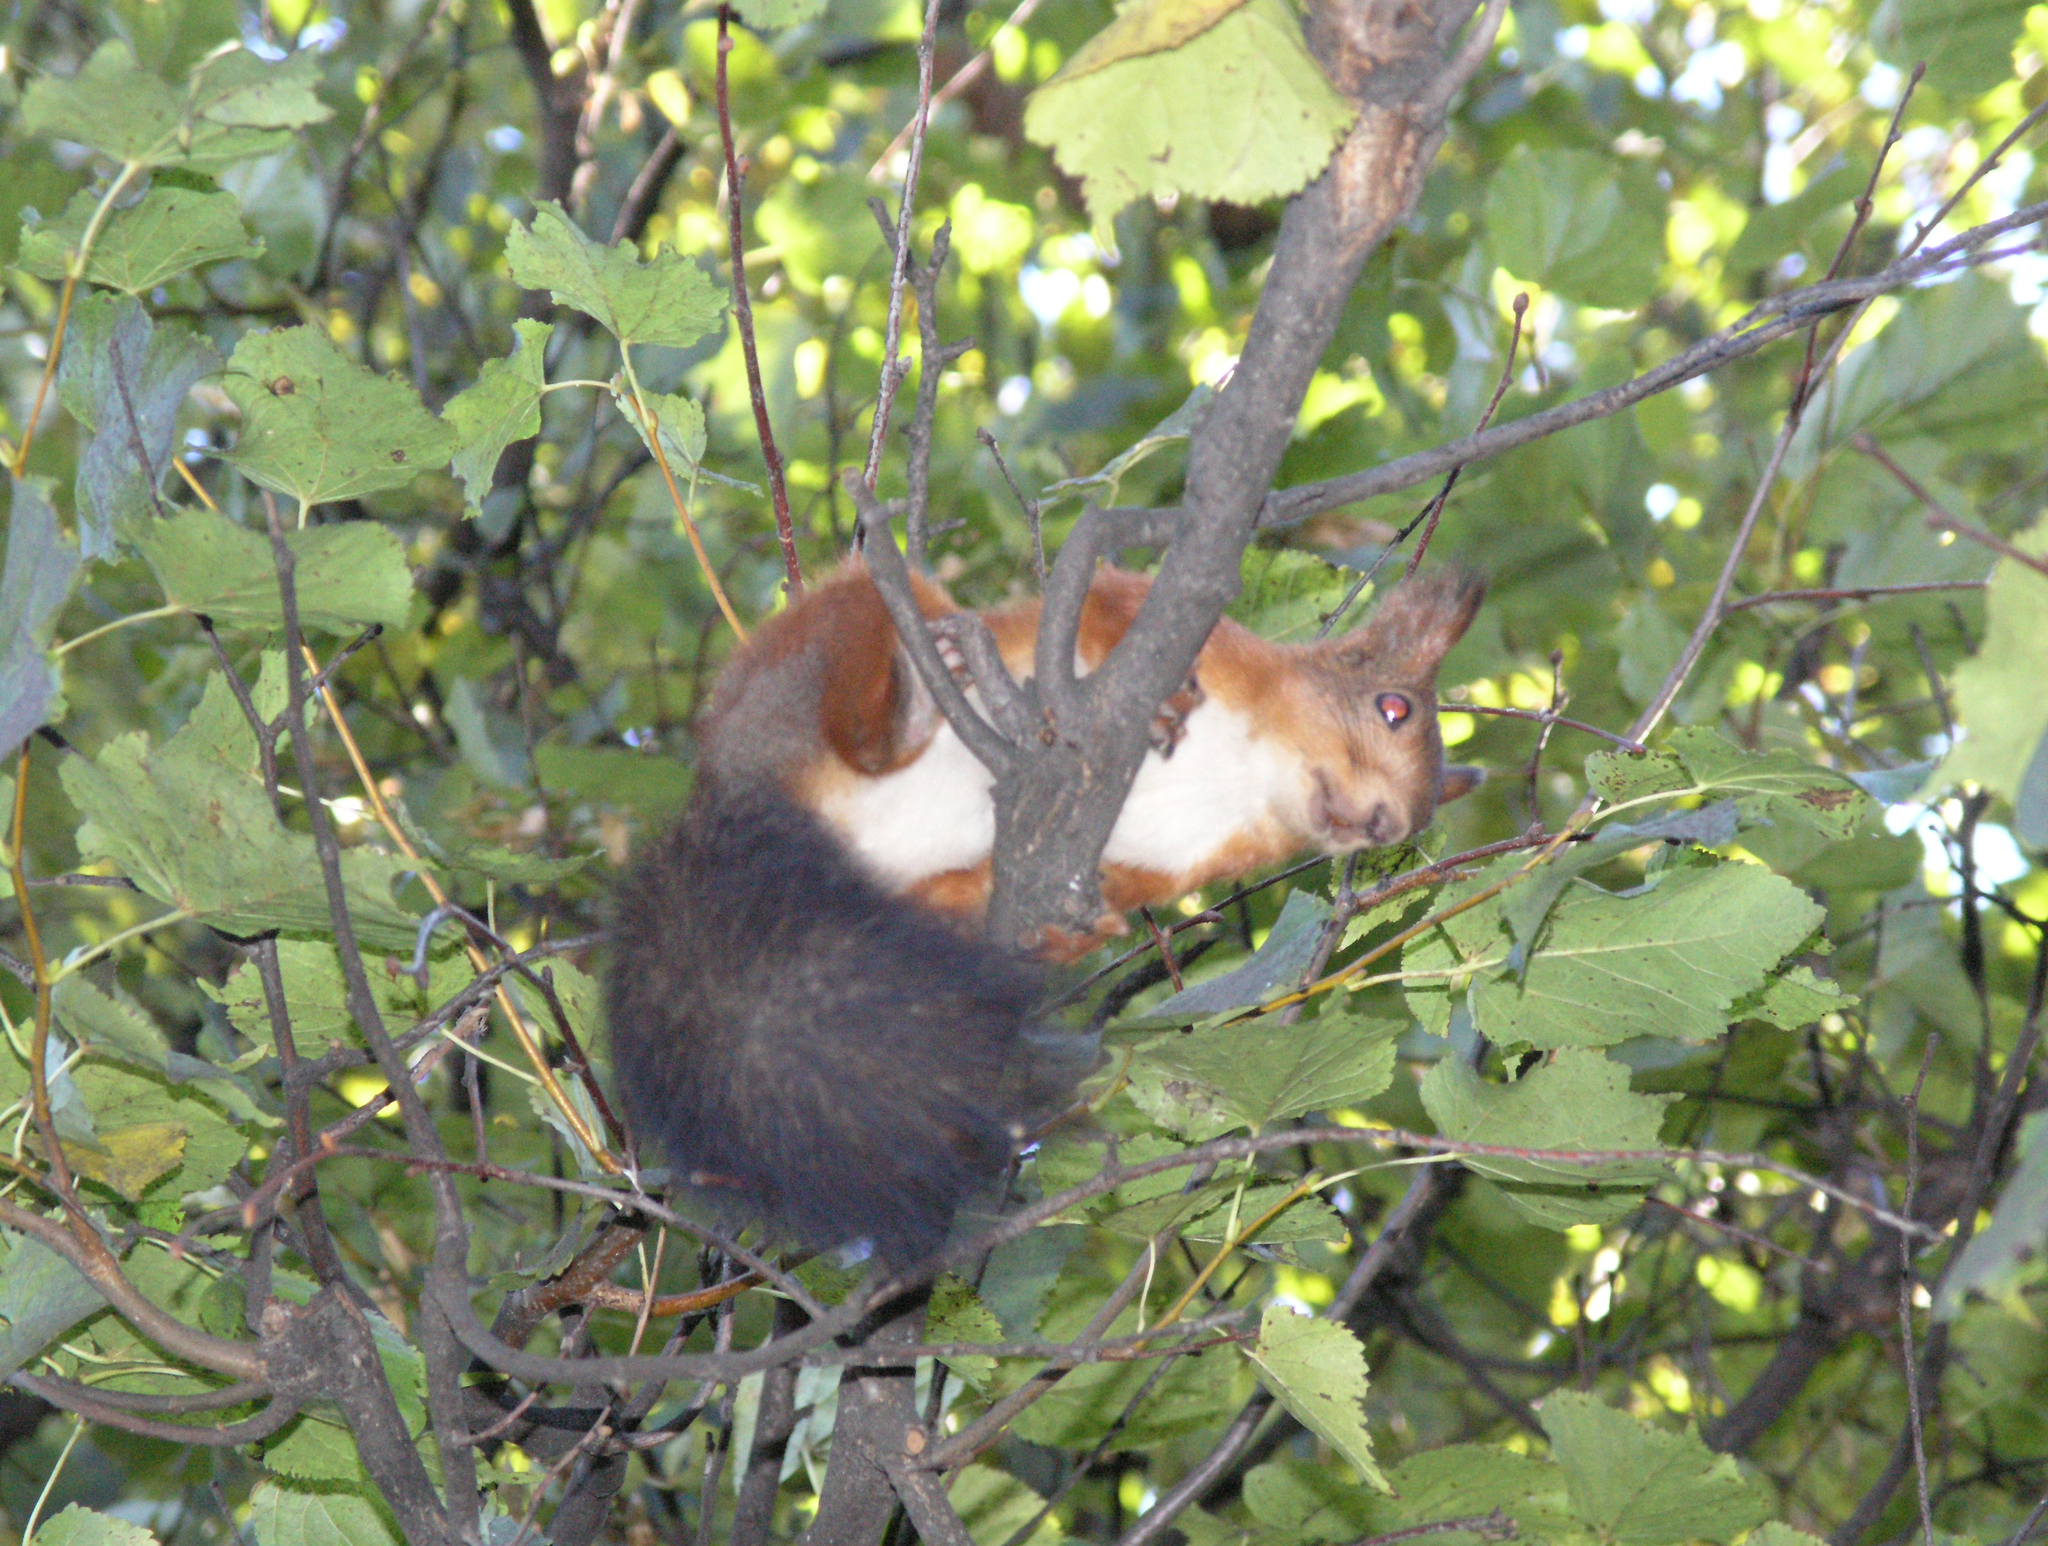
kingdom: Animalia
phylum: Chordata
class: Mammalia
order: Rodentia
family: Sciuridae
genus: Sciurus
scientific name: Sciurus vulgaris
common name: Eurasian red squirrel
